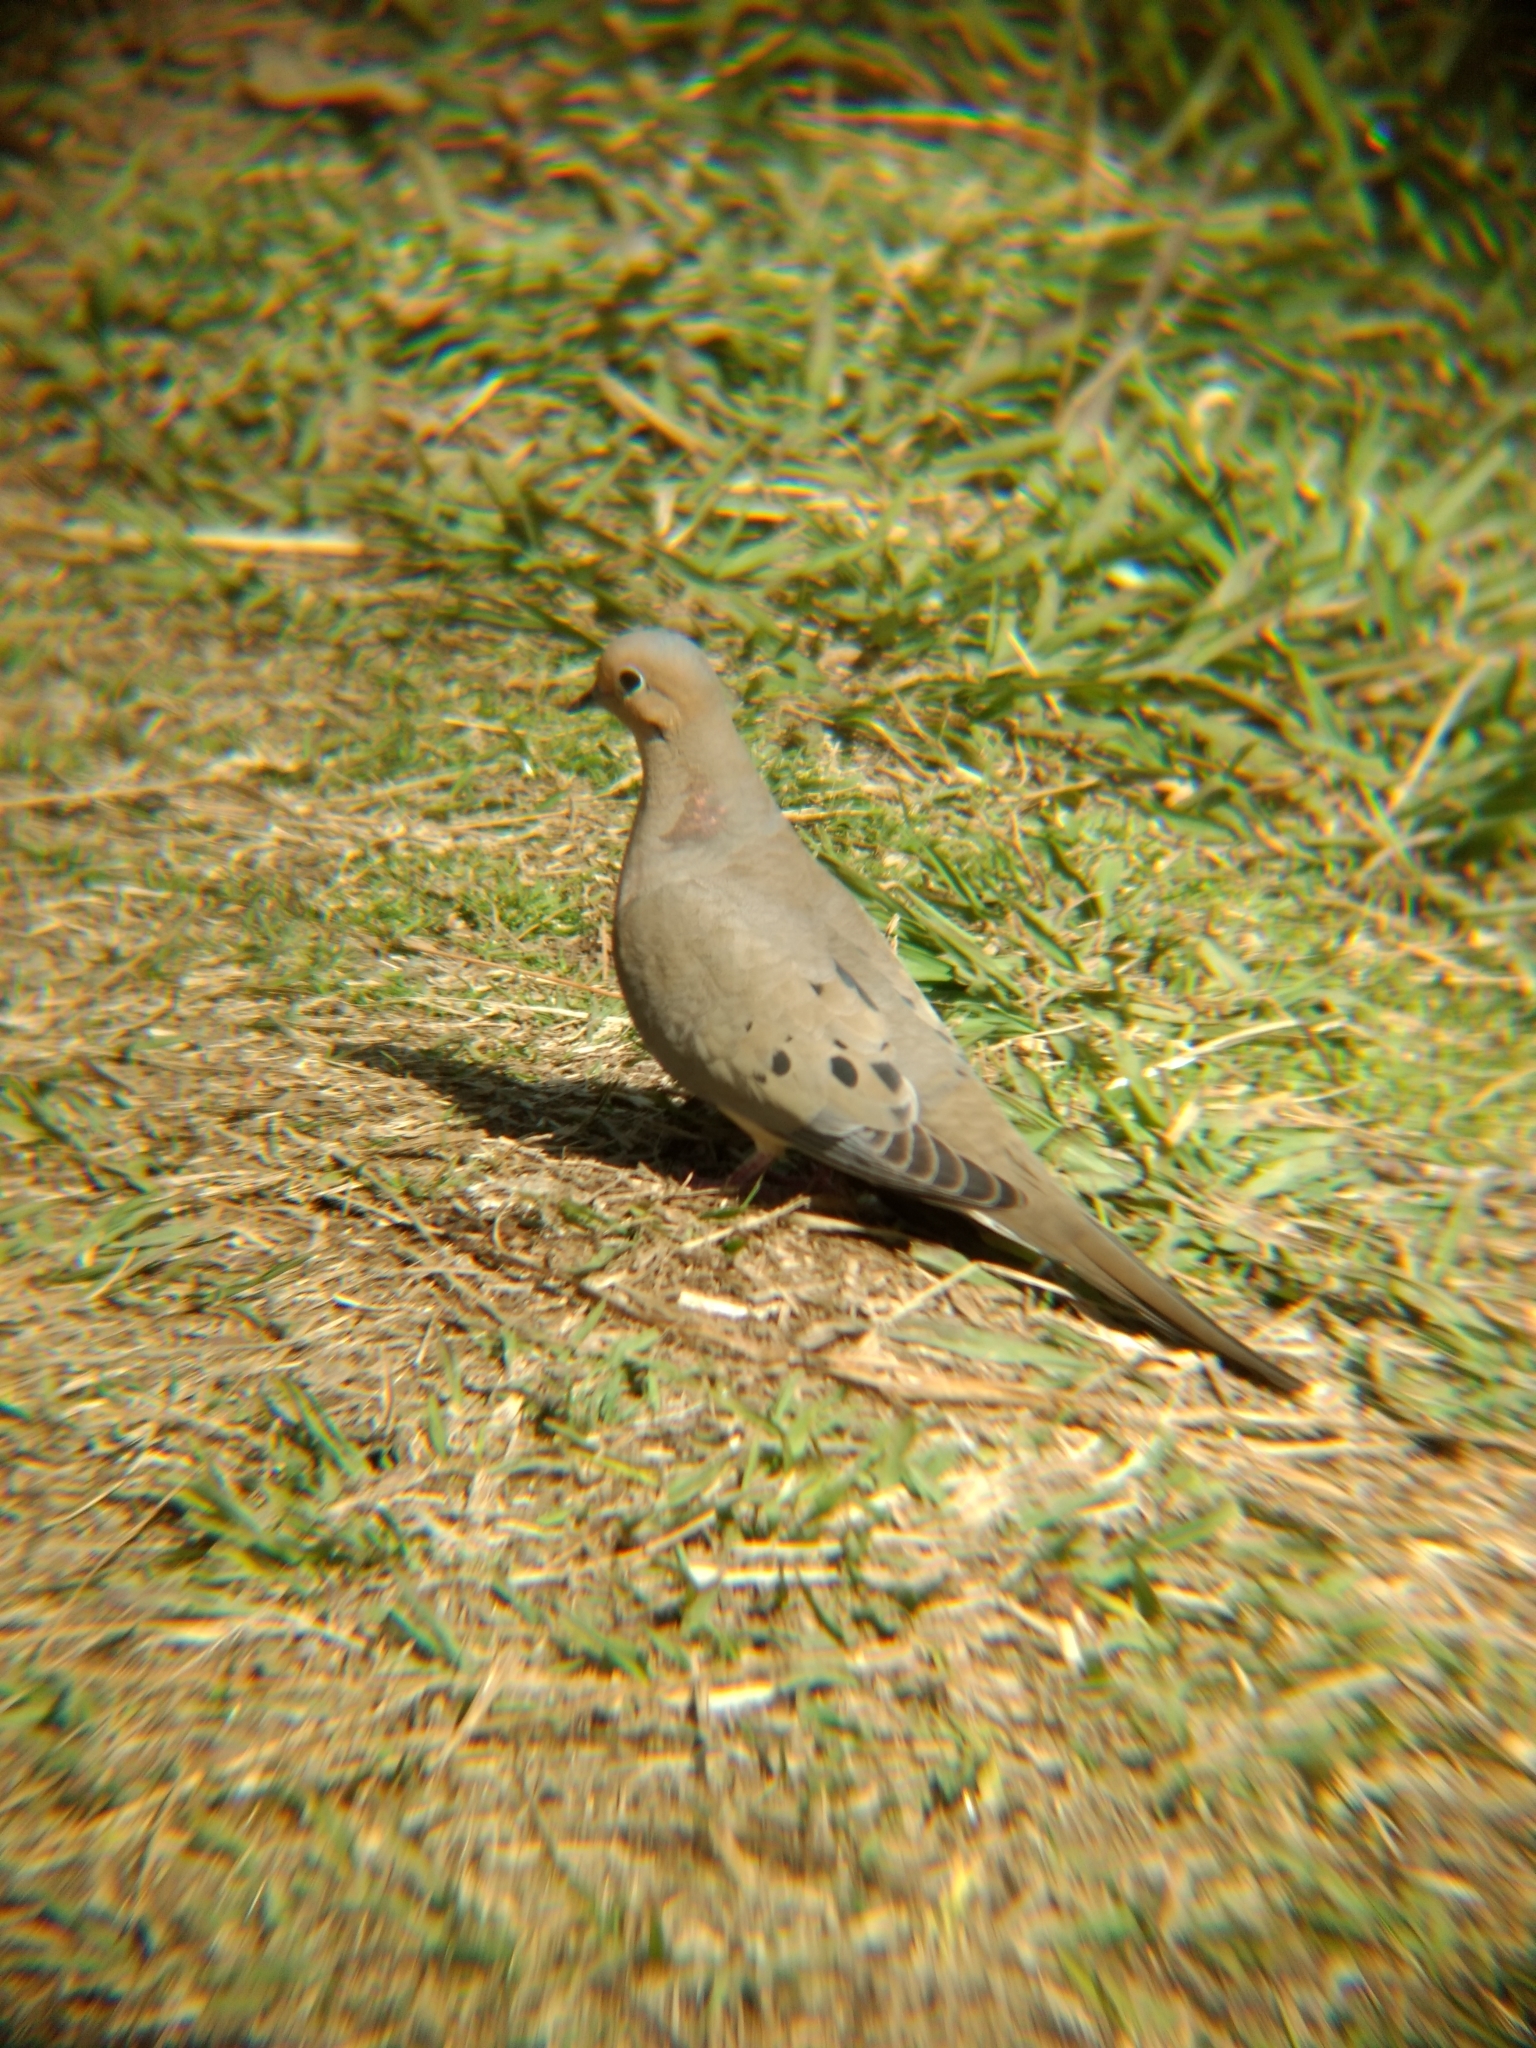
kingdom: Animalia
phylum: Chordata
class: Aves
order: Columbiformes
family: Columbidae
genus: Zenaida
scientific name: Zenaida macroura
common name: Mourning dove
